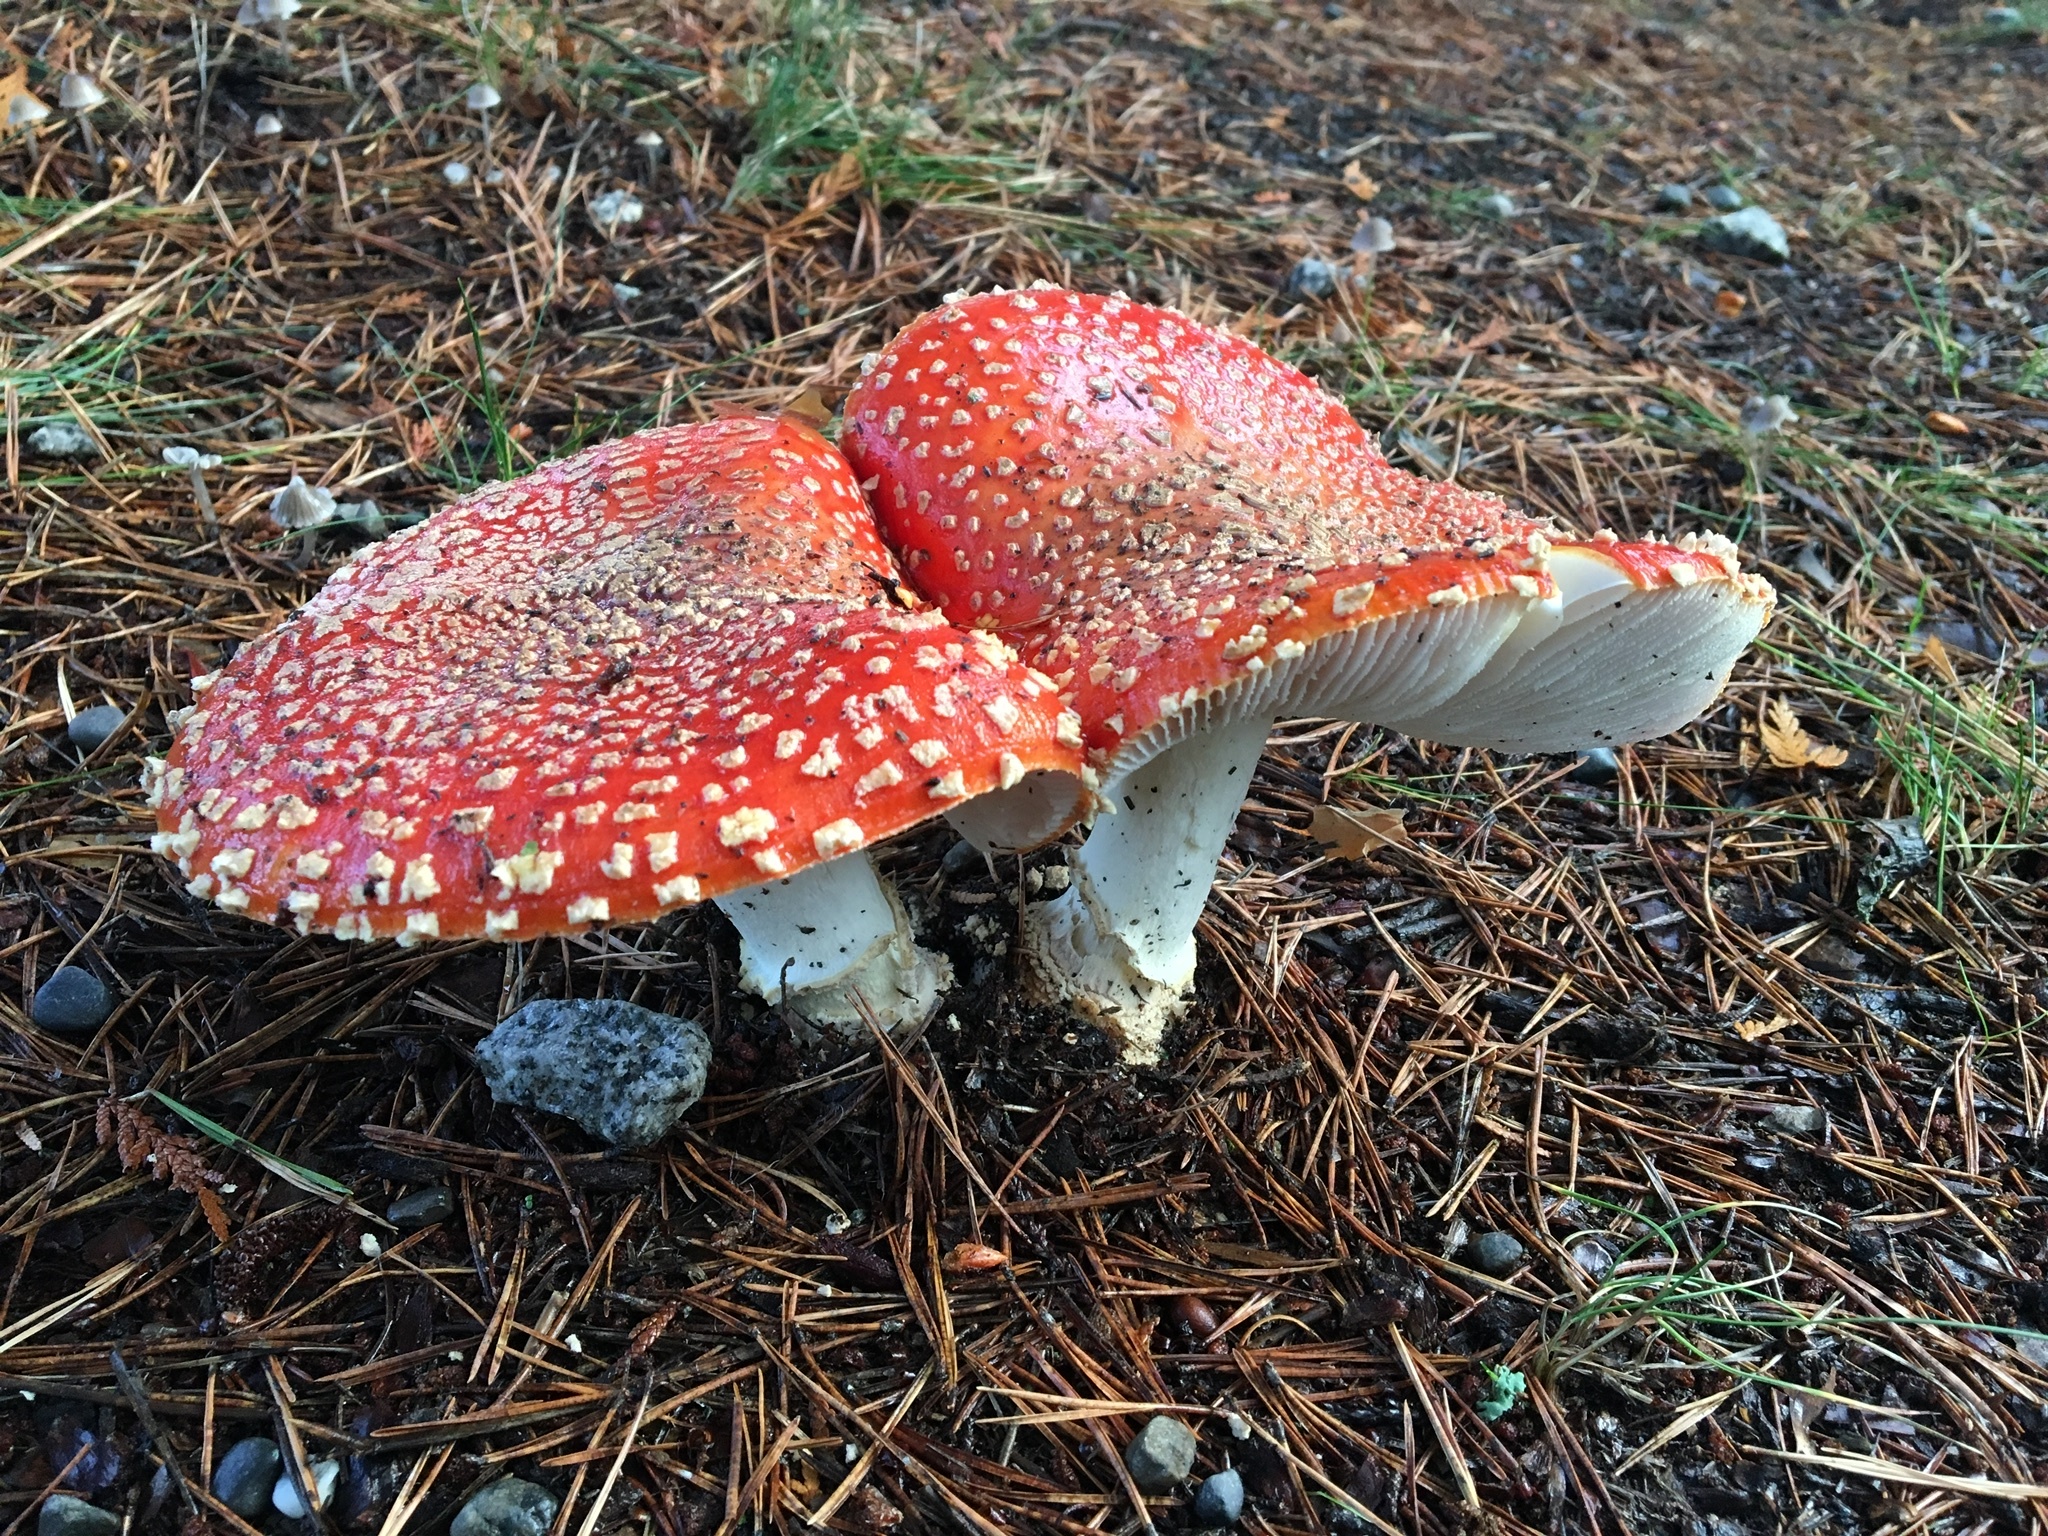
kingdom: Fungi
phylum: Basidiomycota
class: Agaricomycetes
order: Agaricales
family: Amanitaceae
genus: Amanita
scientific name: Amanita muscaria
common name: Fly agaric
